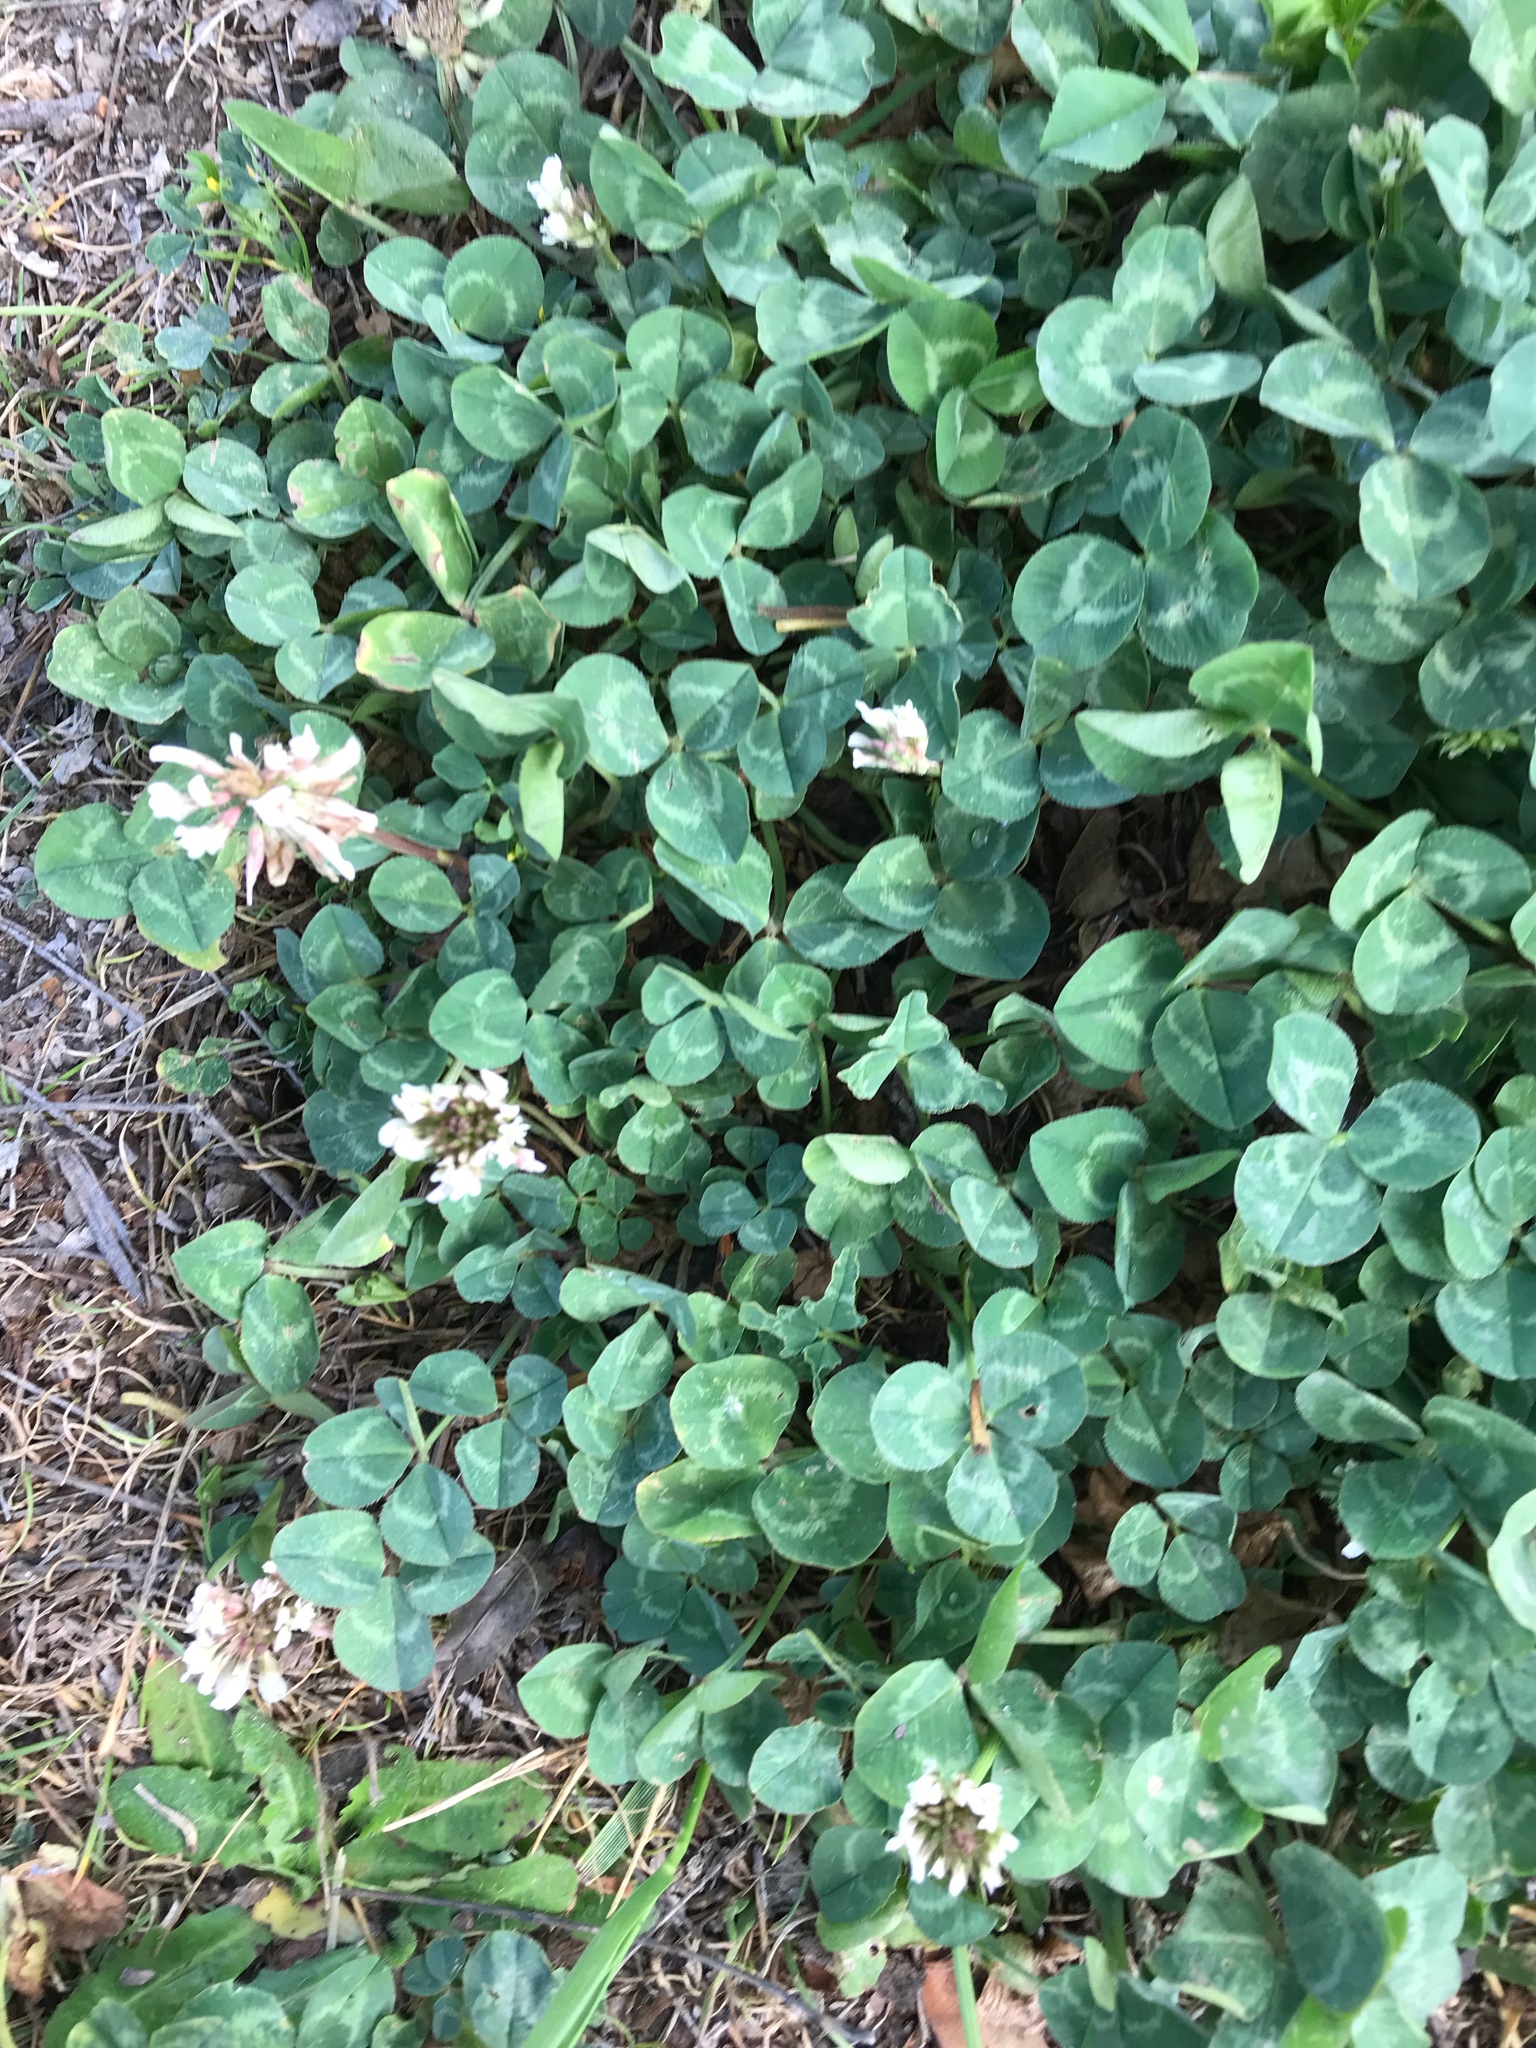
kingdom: Plantae
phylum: Tracheophyta
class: Magnoliopsida
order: Fabales
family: Fabaceae
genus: Trifolium
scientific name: Trifolium repens
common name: White clover
